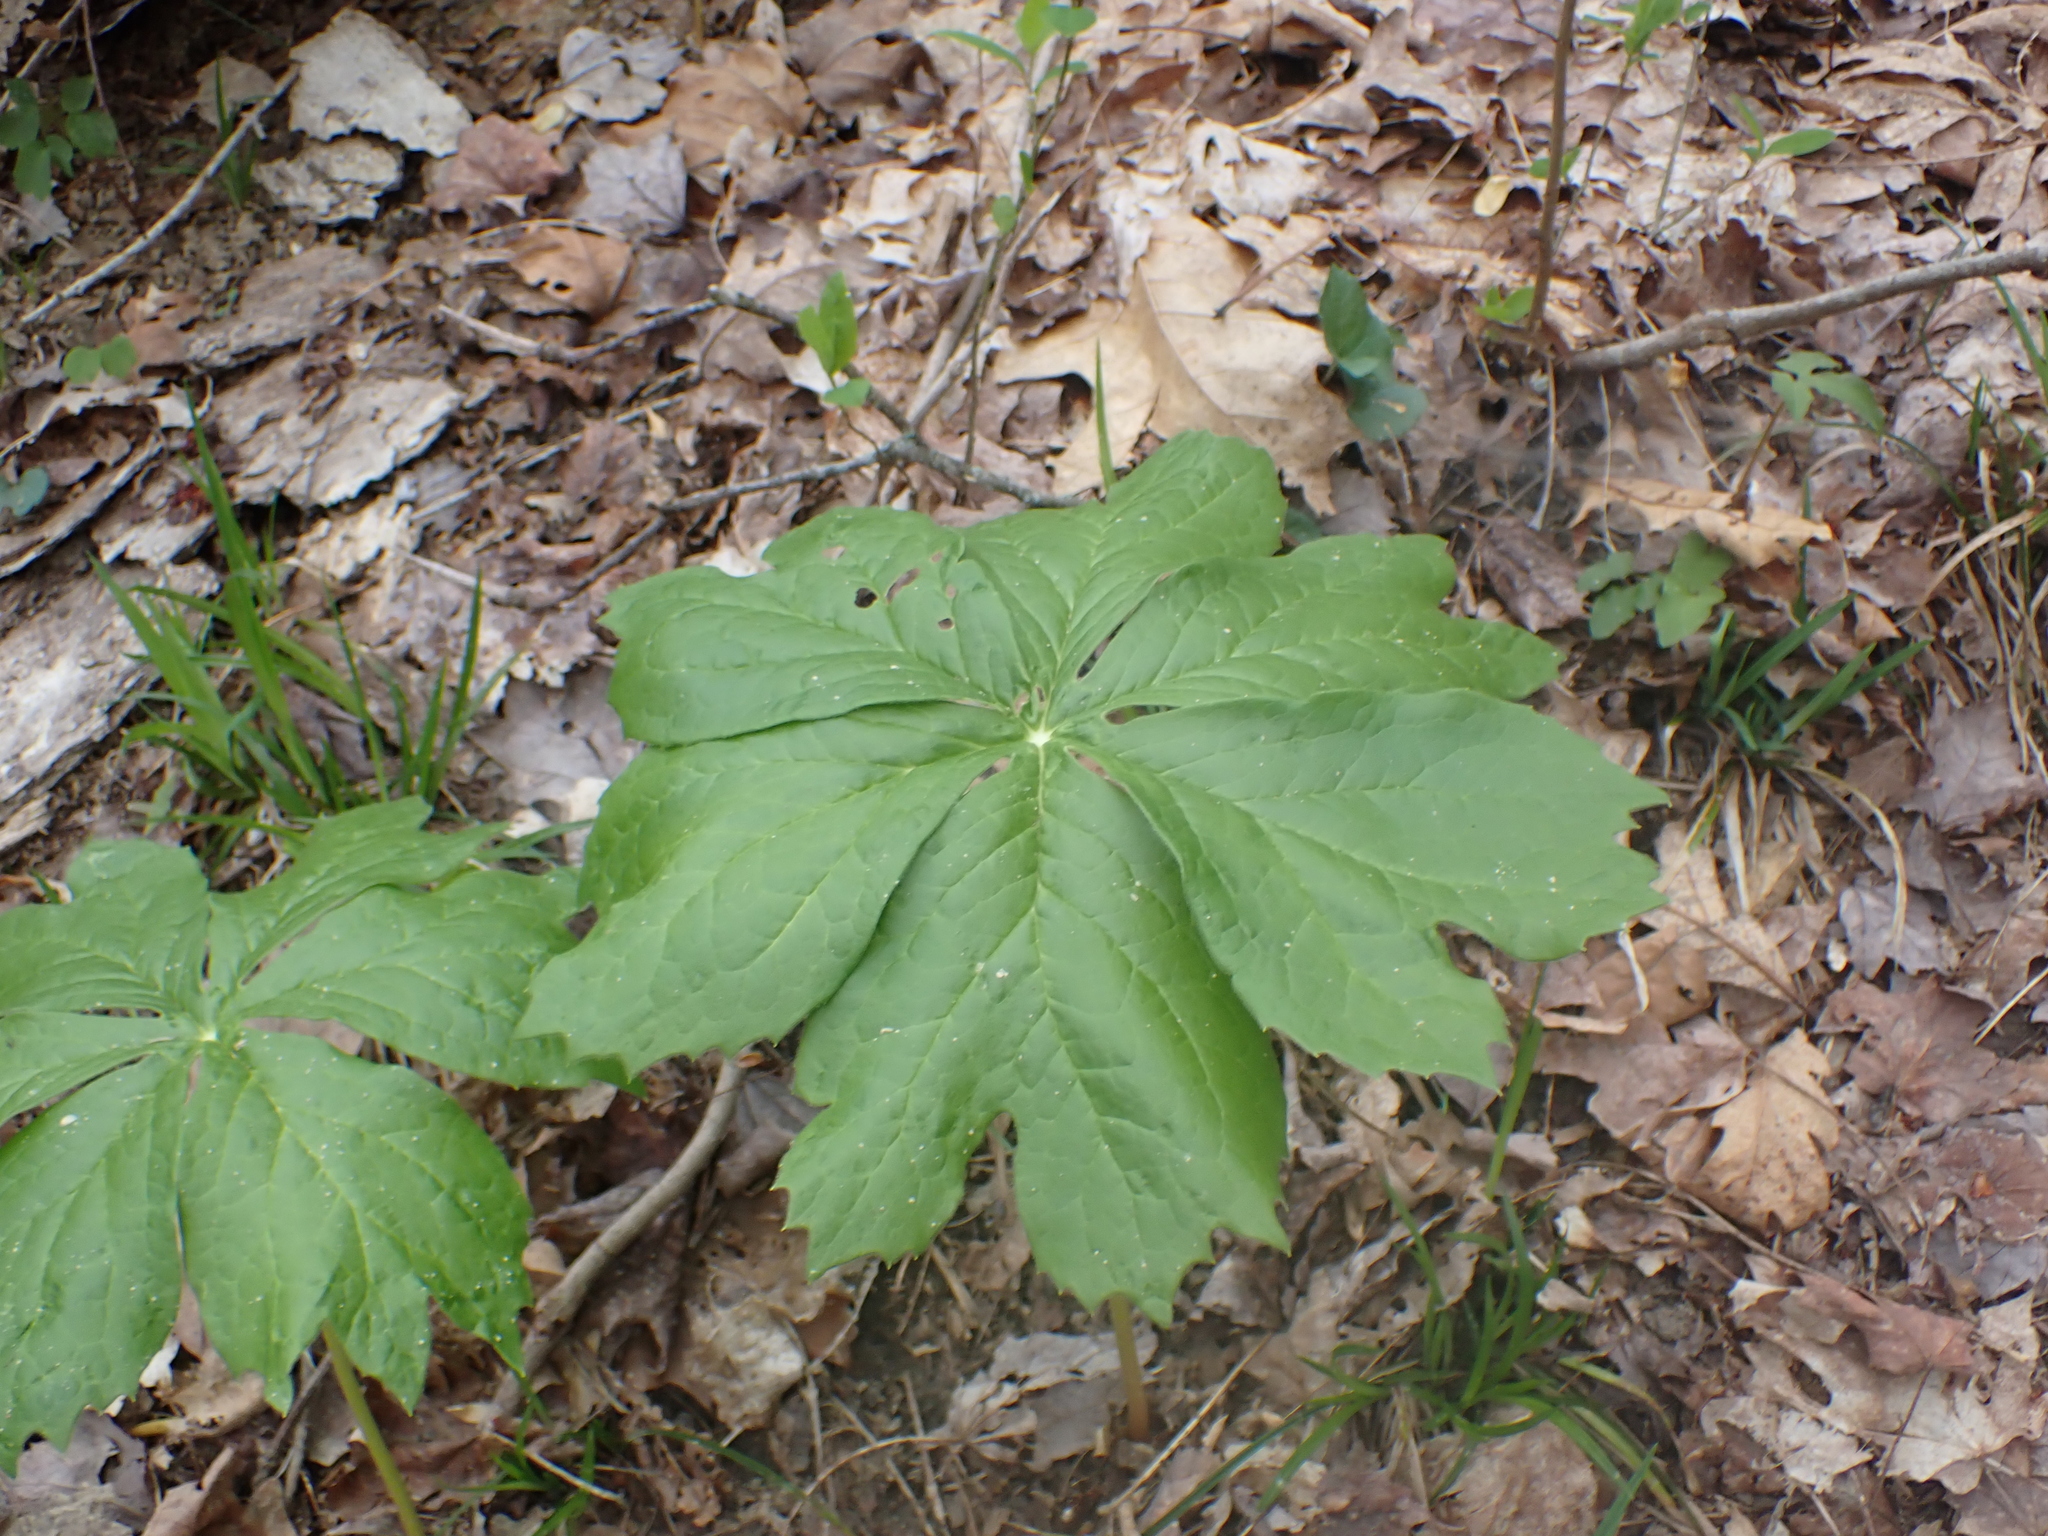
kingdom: Plantae
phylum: Tracheophyta
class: Magnoliopsida
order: Ranunculales
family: Berberidaceae
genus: Podophyllum
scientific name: Podophyllum peltatum
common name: Wild mandrake
